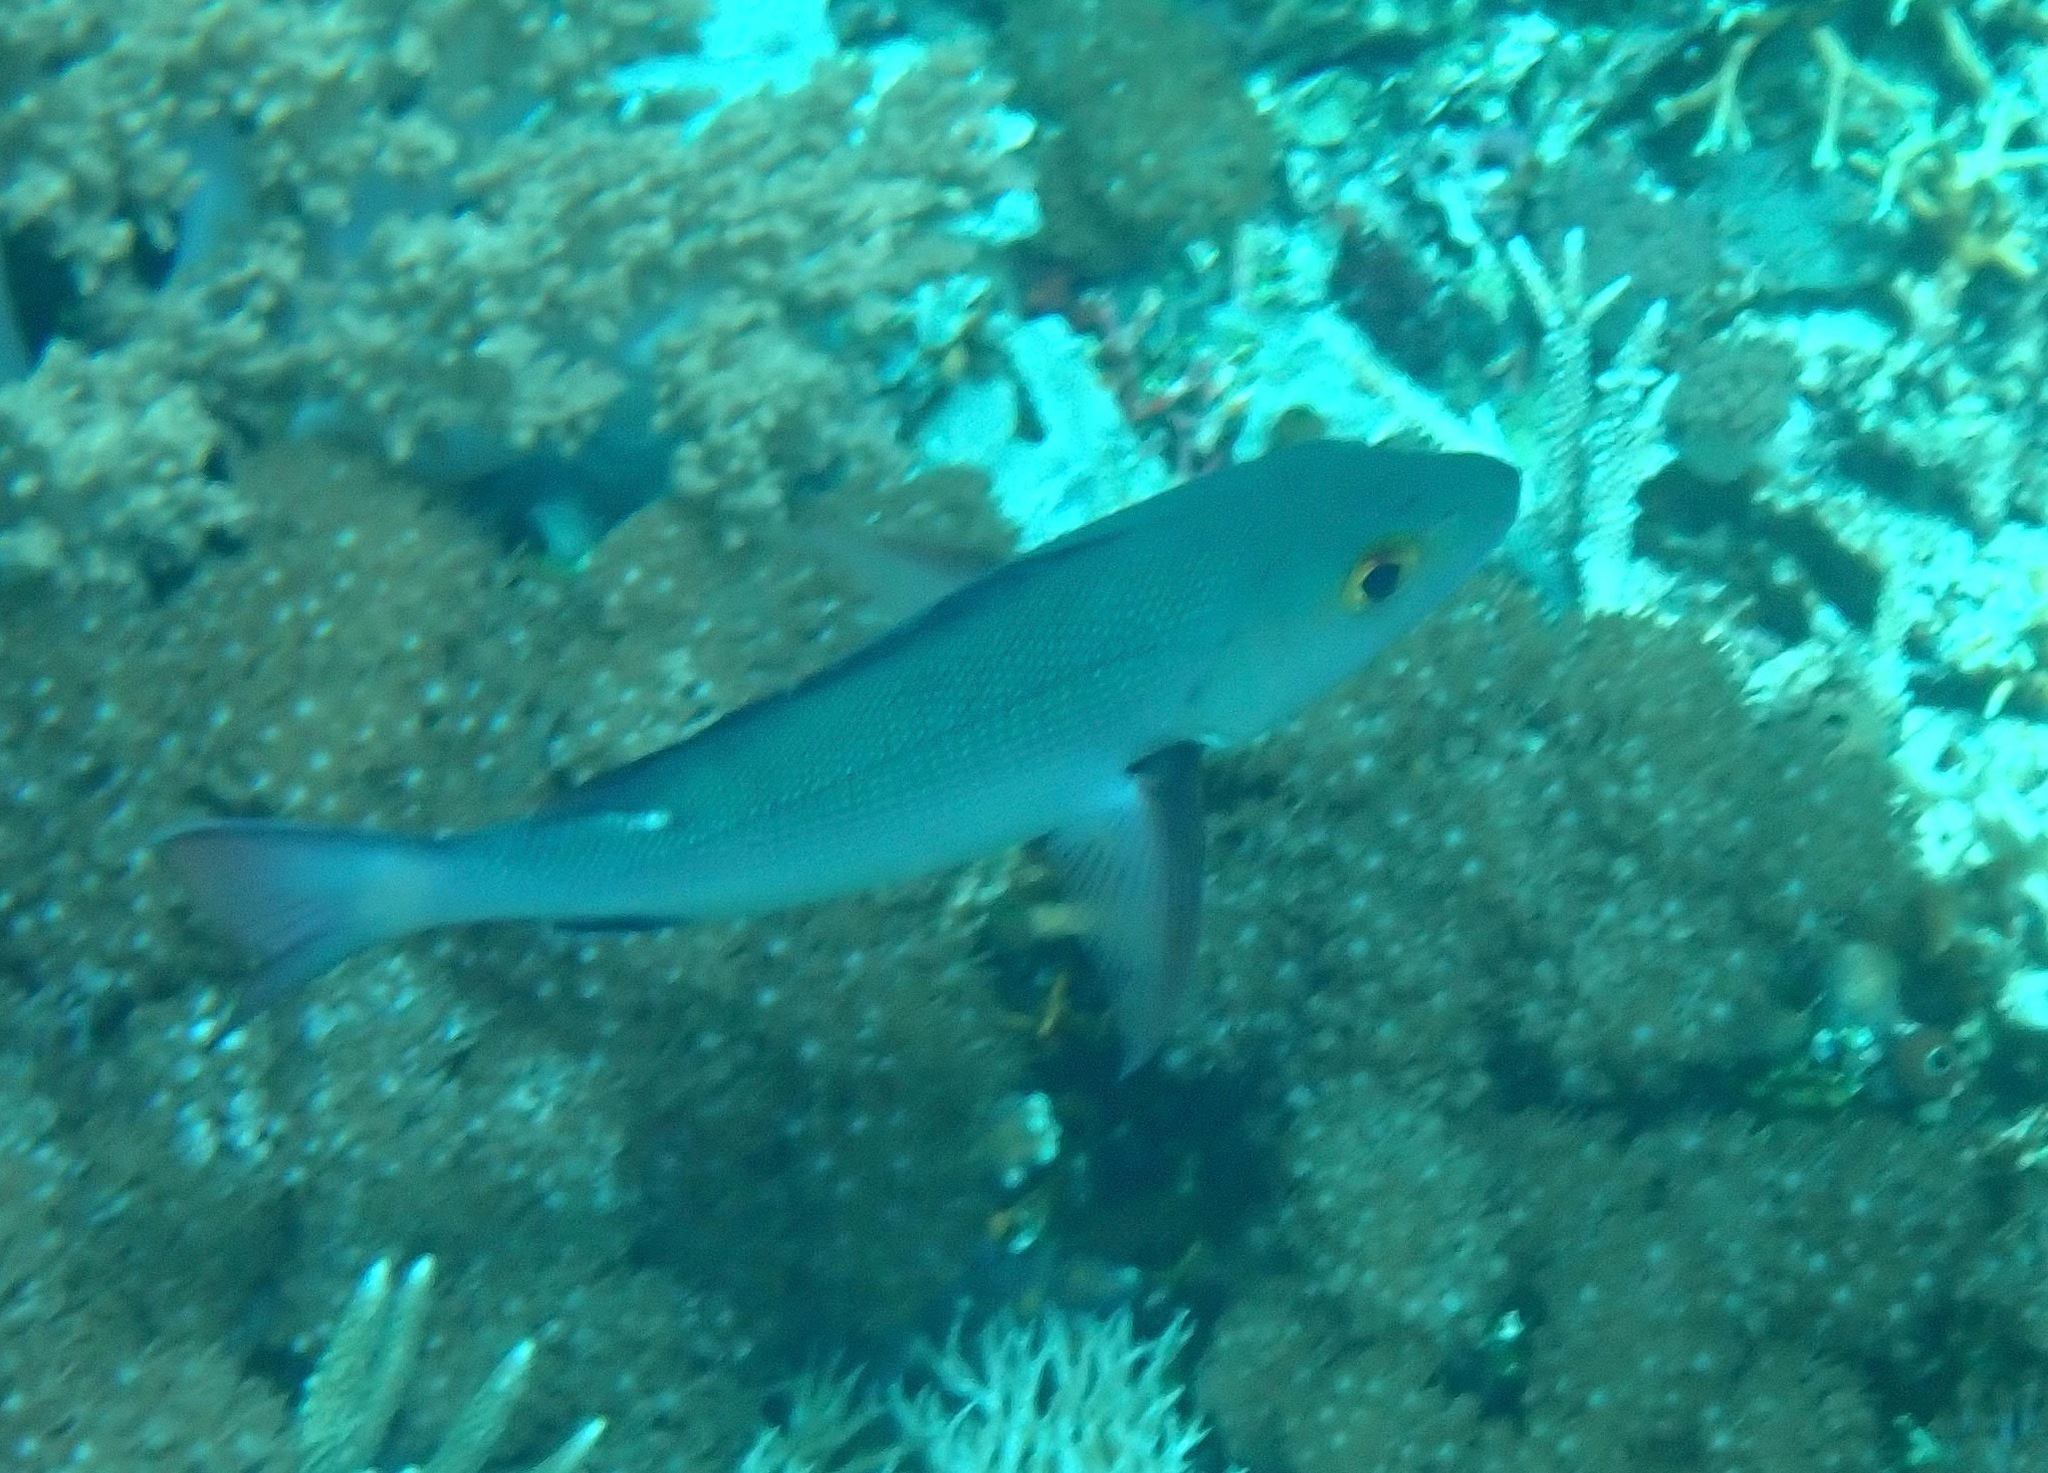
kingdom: Animalia
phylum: Chordata
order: Perciformes
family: Lutjanidae
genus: Lutjanus
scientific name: Lutjanus bohar
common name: Red bass
